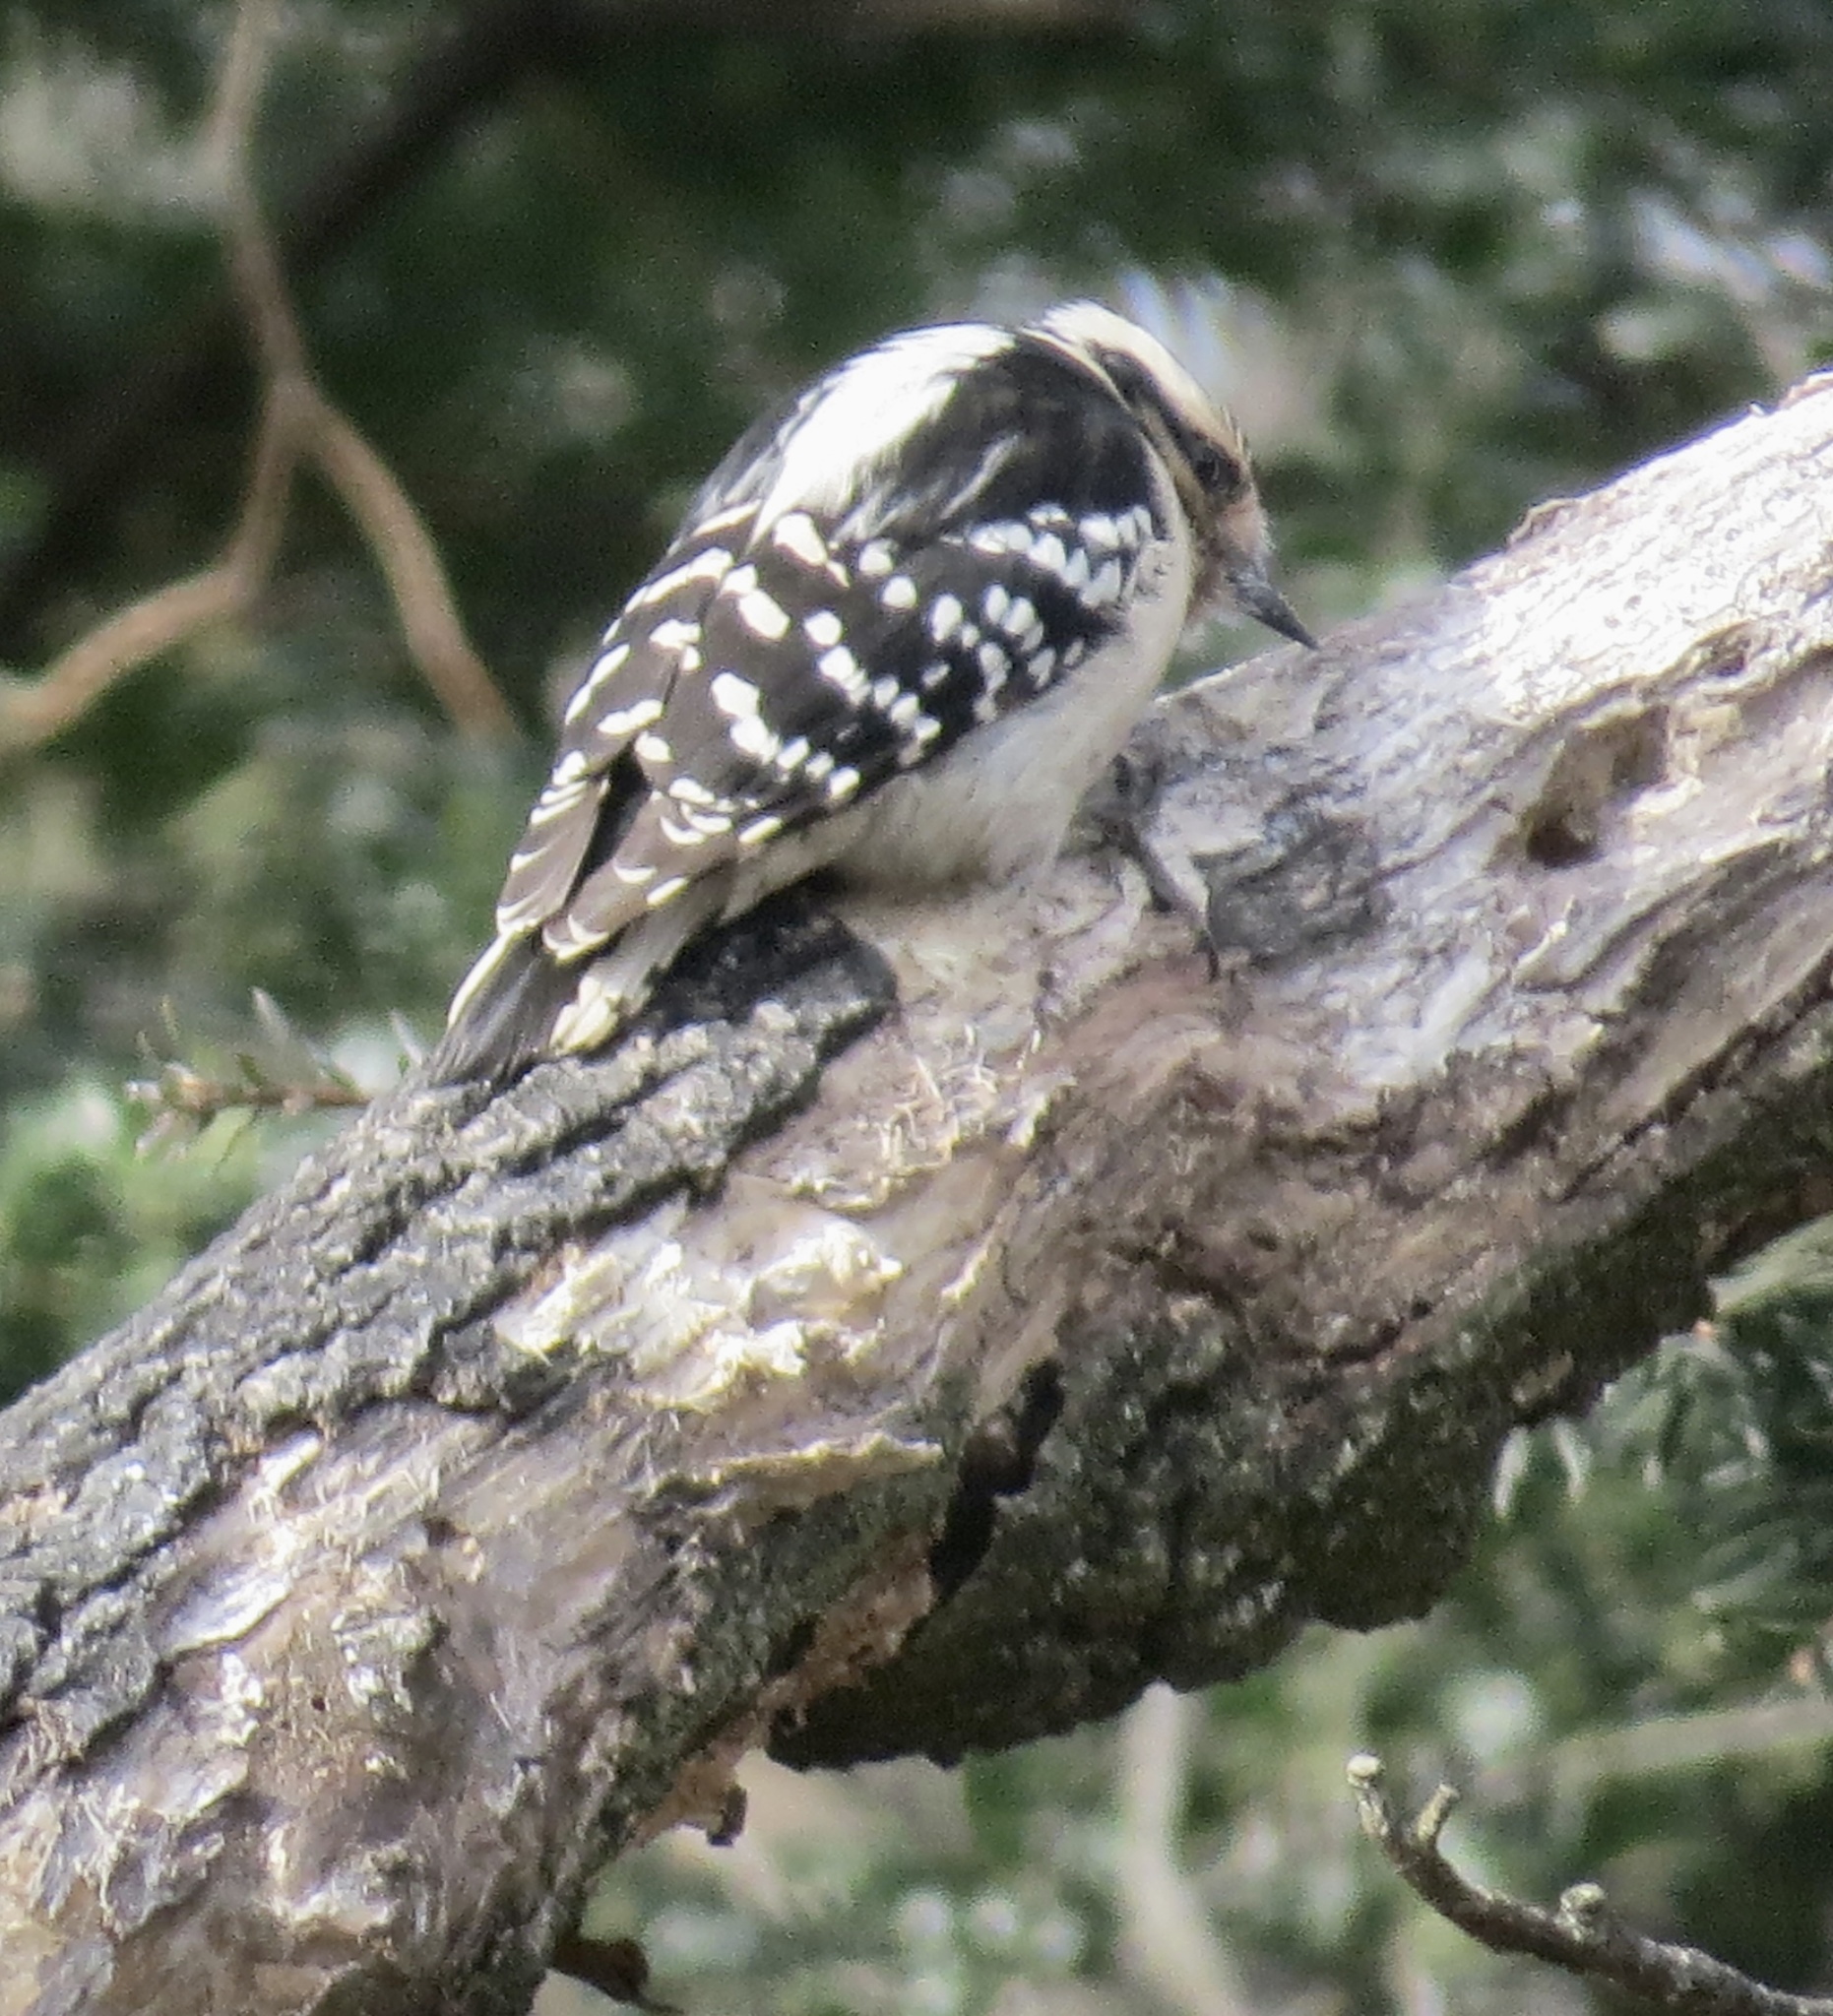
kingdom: Animalia
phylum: Chordata
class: Aves
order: Piciformes
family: Picidae
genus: Dryobates
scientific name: Dryobates pubescens
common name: Downy woodpecker
